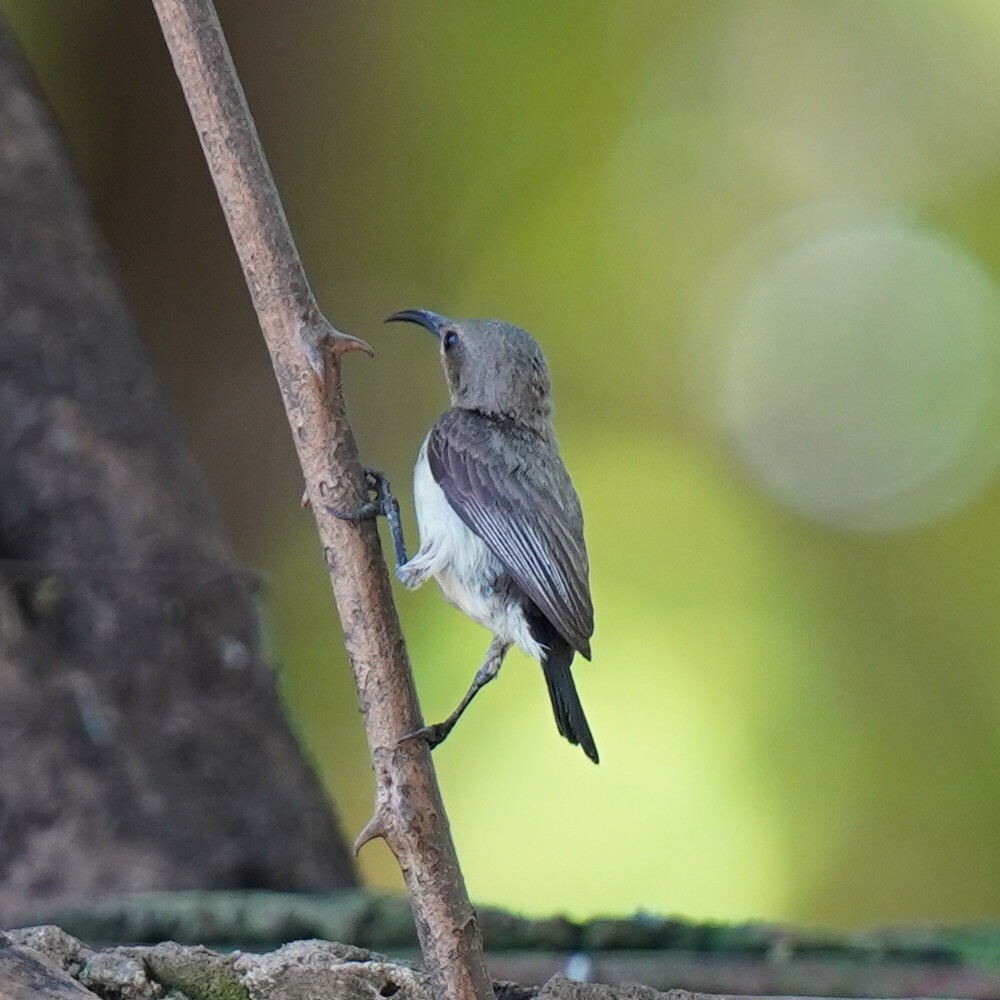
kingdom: Animalia
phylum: Chordata
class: Aves
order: Passeriformes
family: Nectariniidae
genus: Cinnyris
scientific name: Cinnyris pulchellus
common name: Beautiful sunbird
